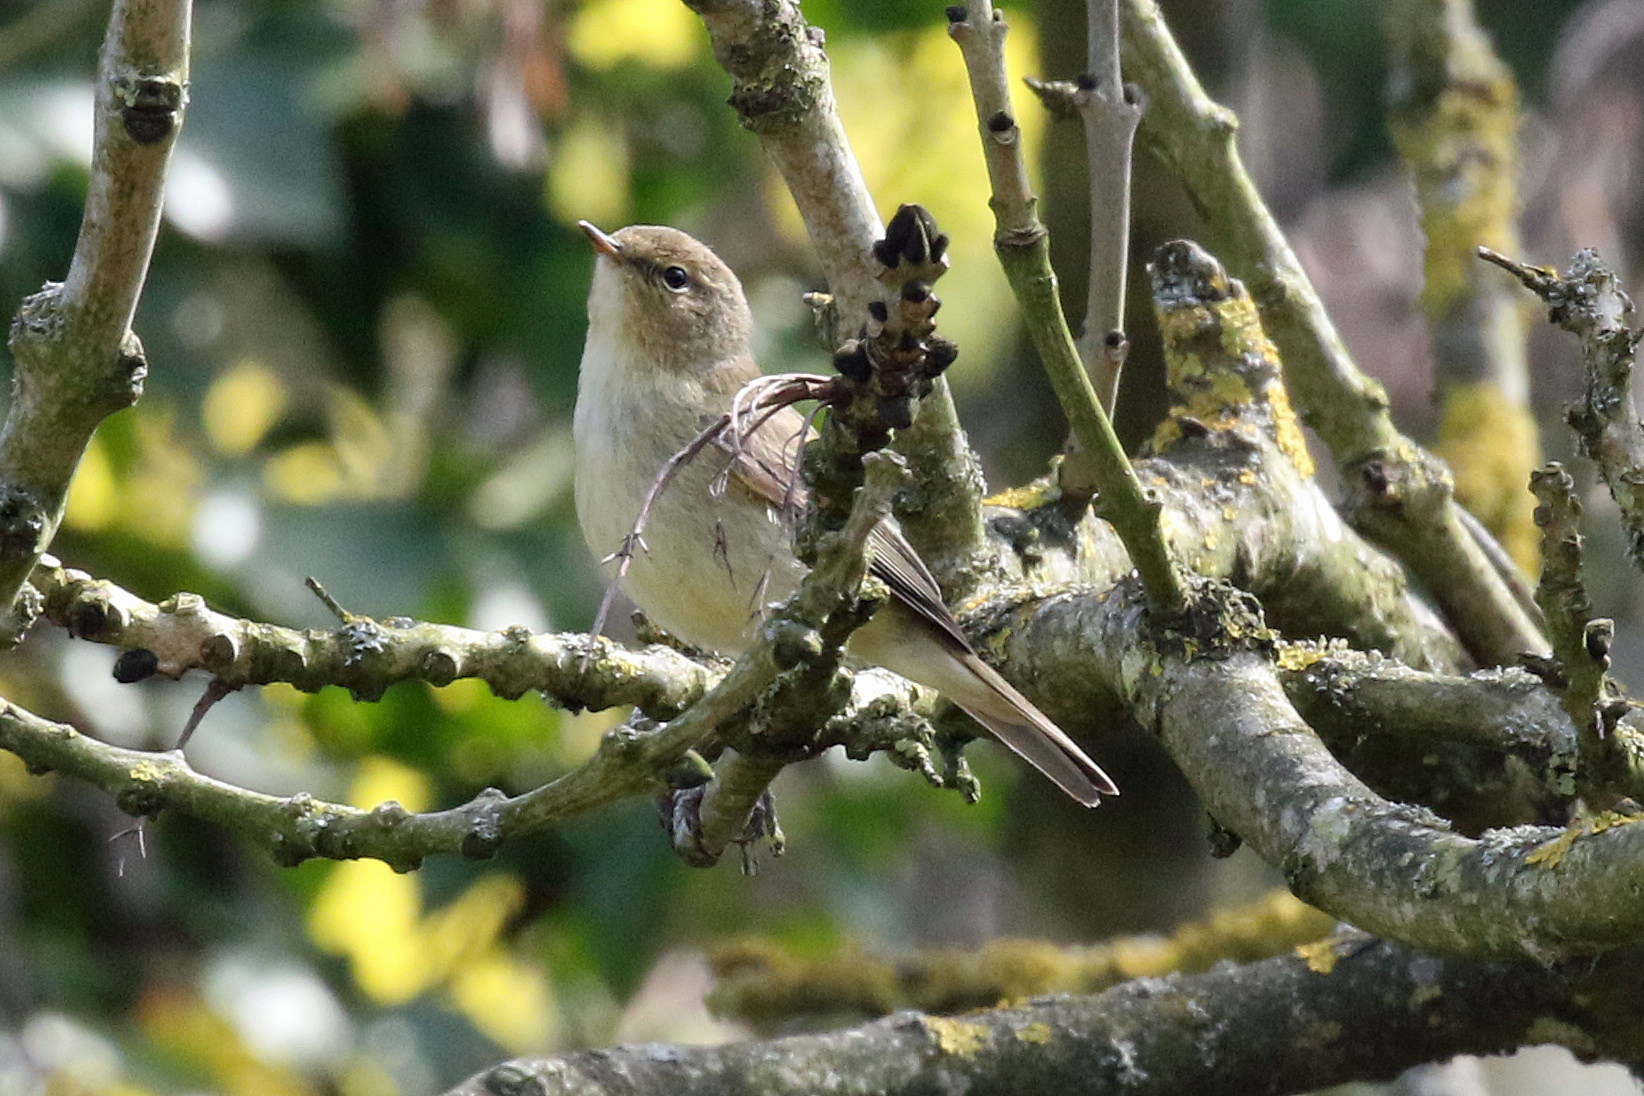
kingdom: Animalia
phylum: Chordata
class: Aves
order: Passeriformes
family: Phylloscopidae
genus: Phylloscopus
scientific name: Phylloscopus collybita
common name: Common chiffchaff
